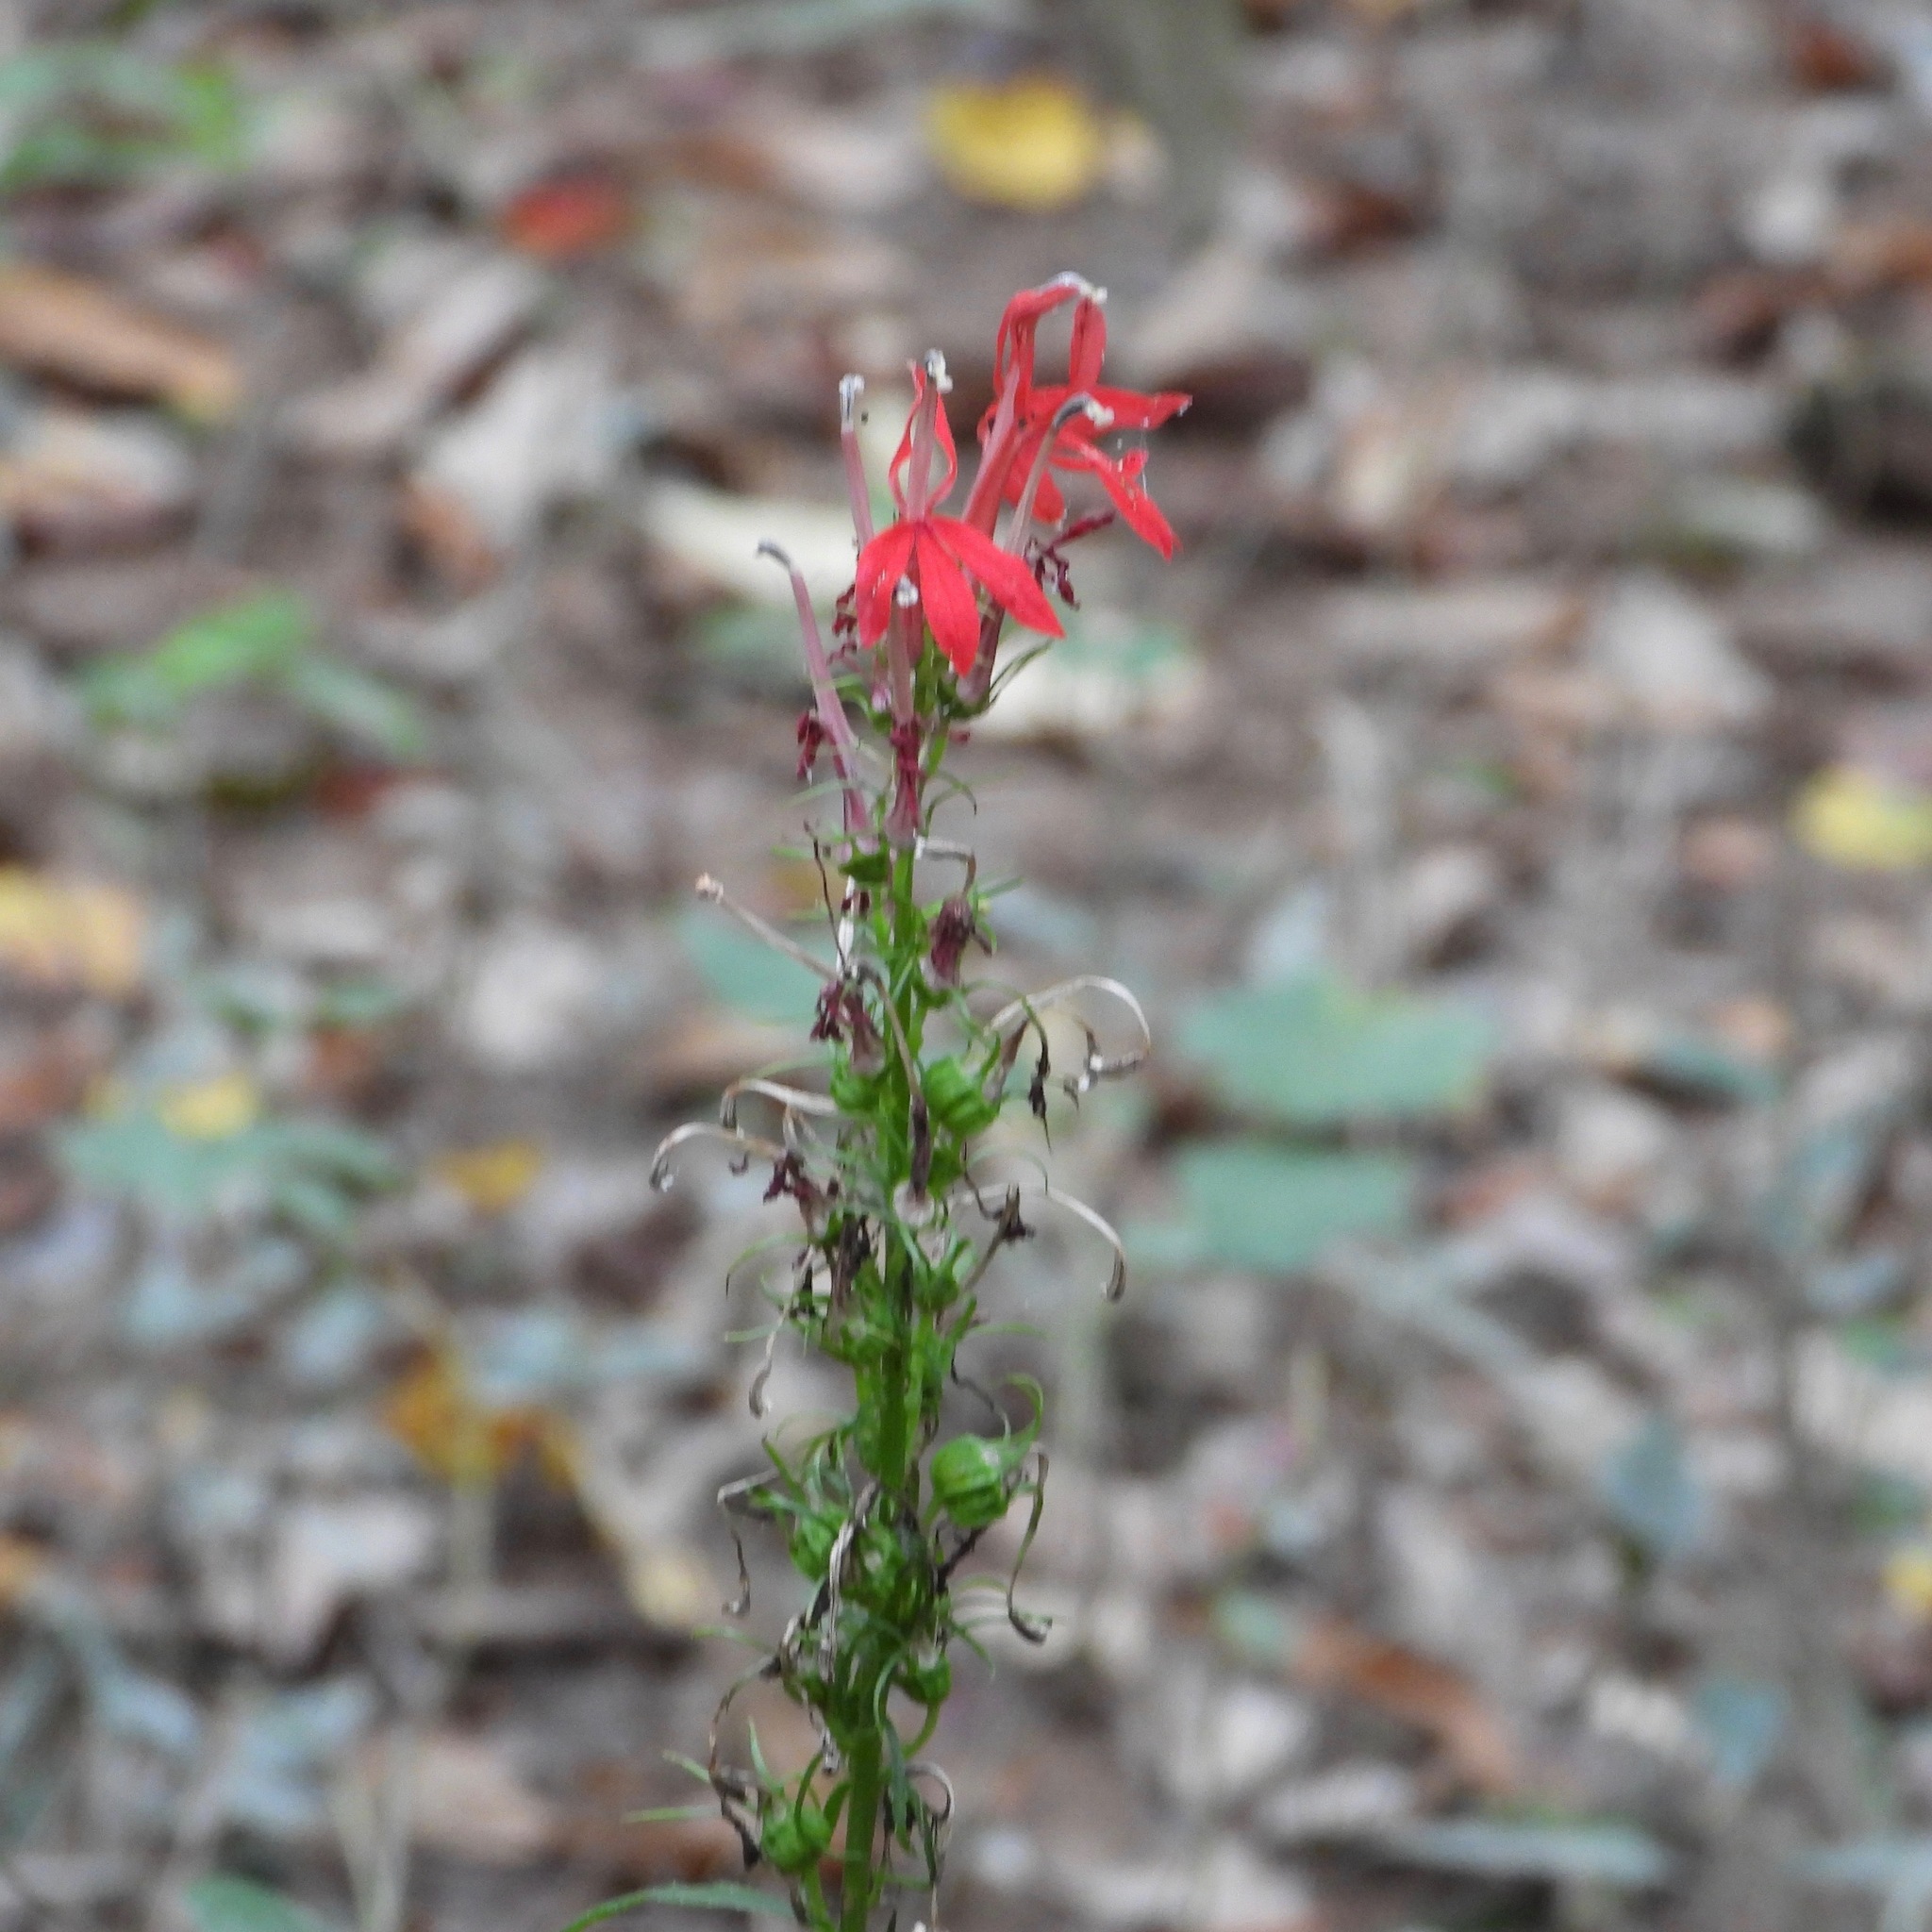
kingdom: Plantae
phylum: Tracheophyta
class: Magnoliopsida
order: Asterales
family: Campanulaceae
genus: Lobelia
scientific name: Lobelia cardinalis
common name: Cardinal flower
